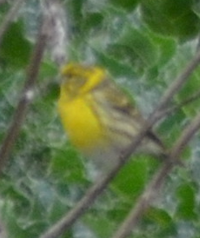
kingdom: Animalia
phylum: Chordata
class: Aves
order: Passeriformes
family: Fringillidae
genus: Serinus
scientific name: Serinus serinus
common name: European serin
